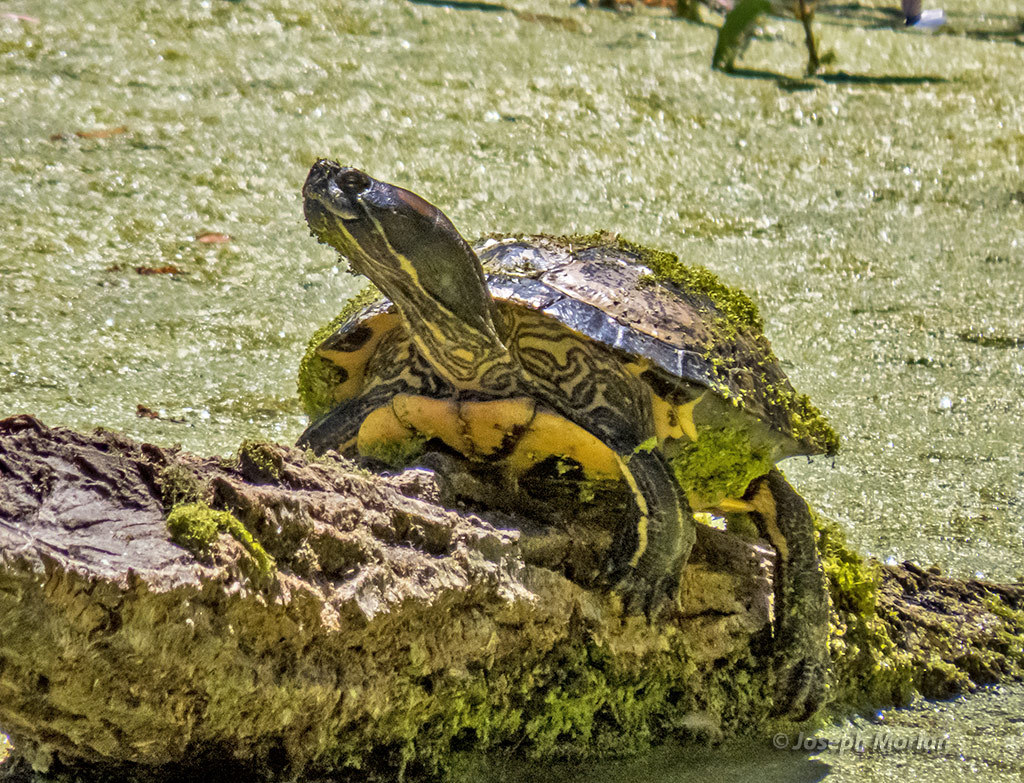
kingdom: Animalia
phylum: Chordata
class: Testudines
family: Emydidae
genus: Trachemys
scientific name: Trachemys scripta
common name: Slider
